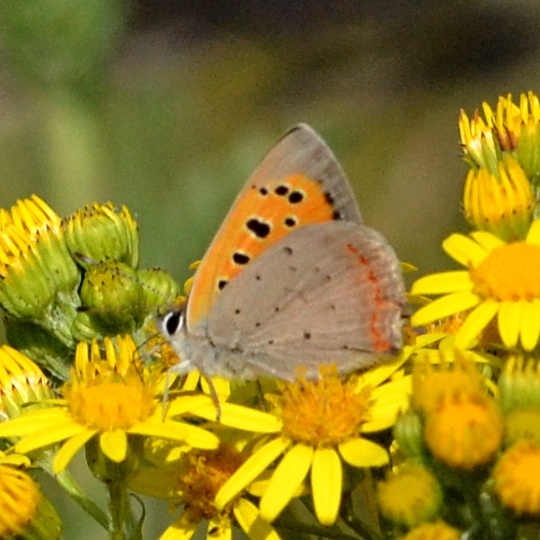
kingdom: Animalia
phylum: Arthropoda
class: Insecta
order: Lepidoptera
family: Lycaenidae
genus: Lycaena
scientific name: Lycaena phlaeas
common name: Small copper
